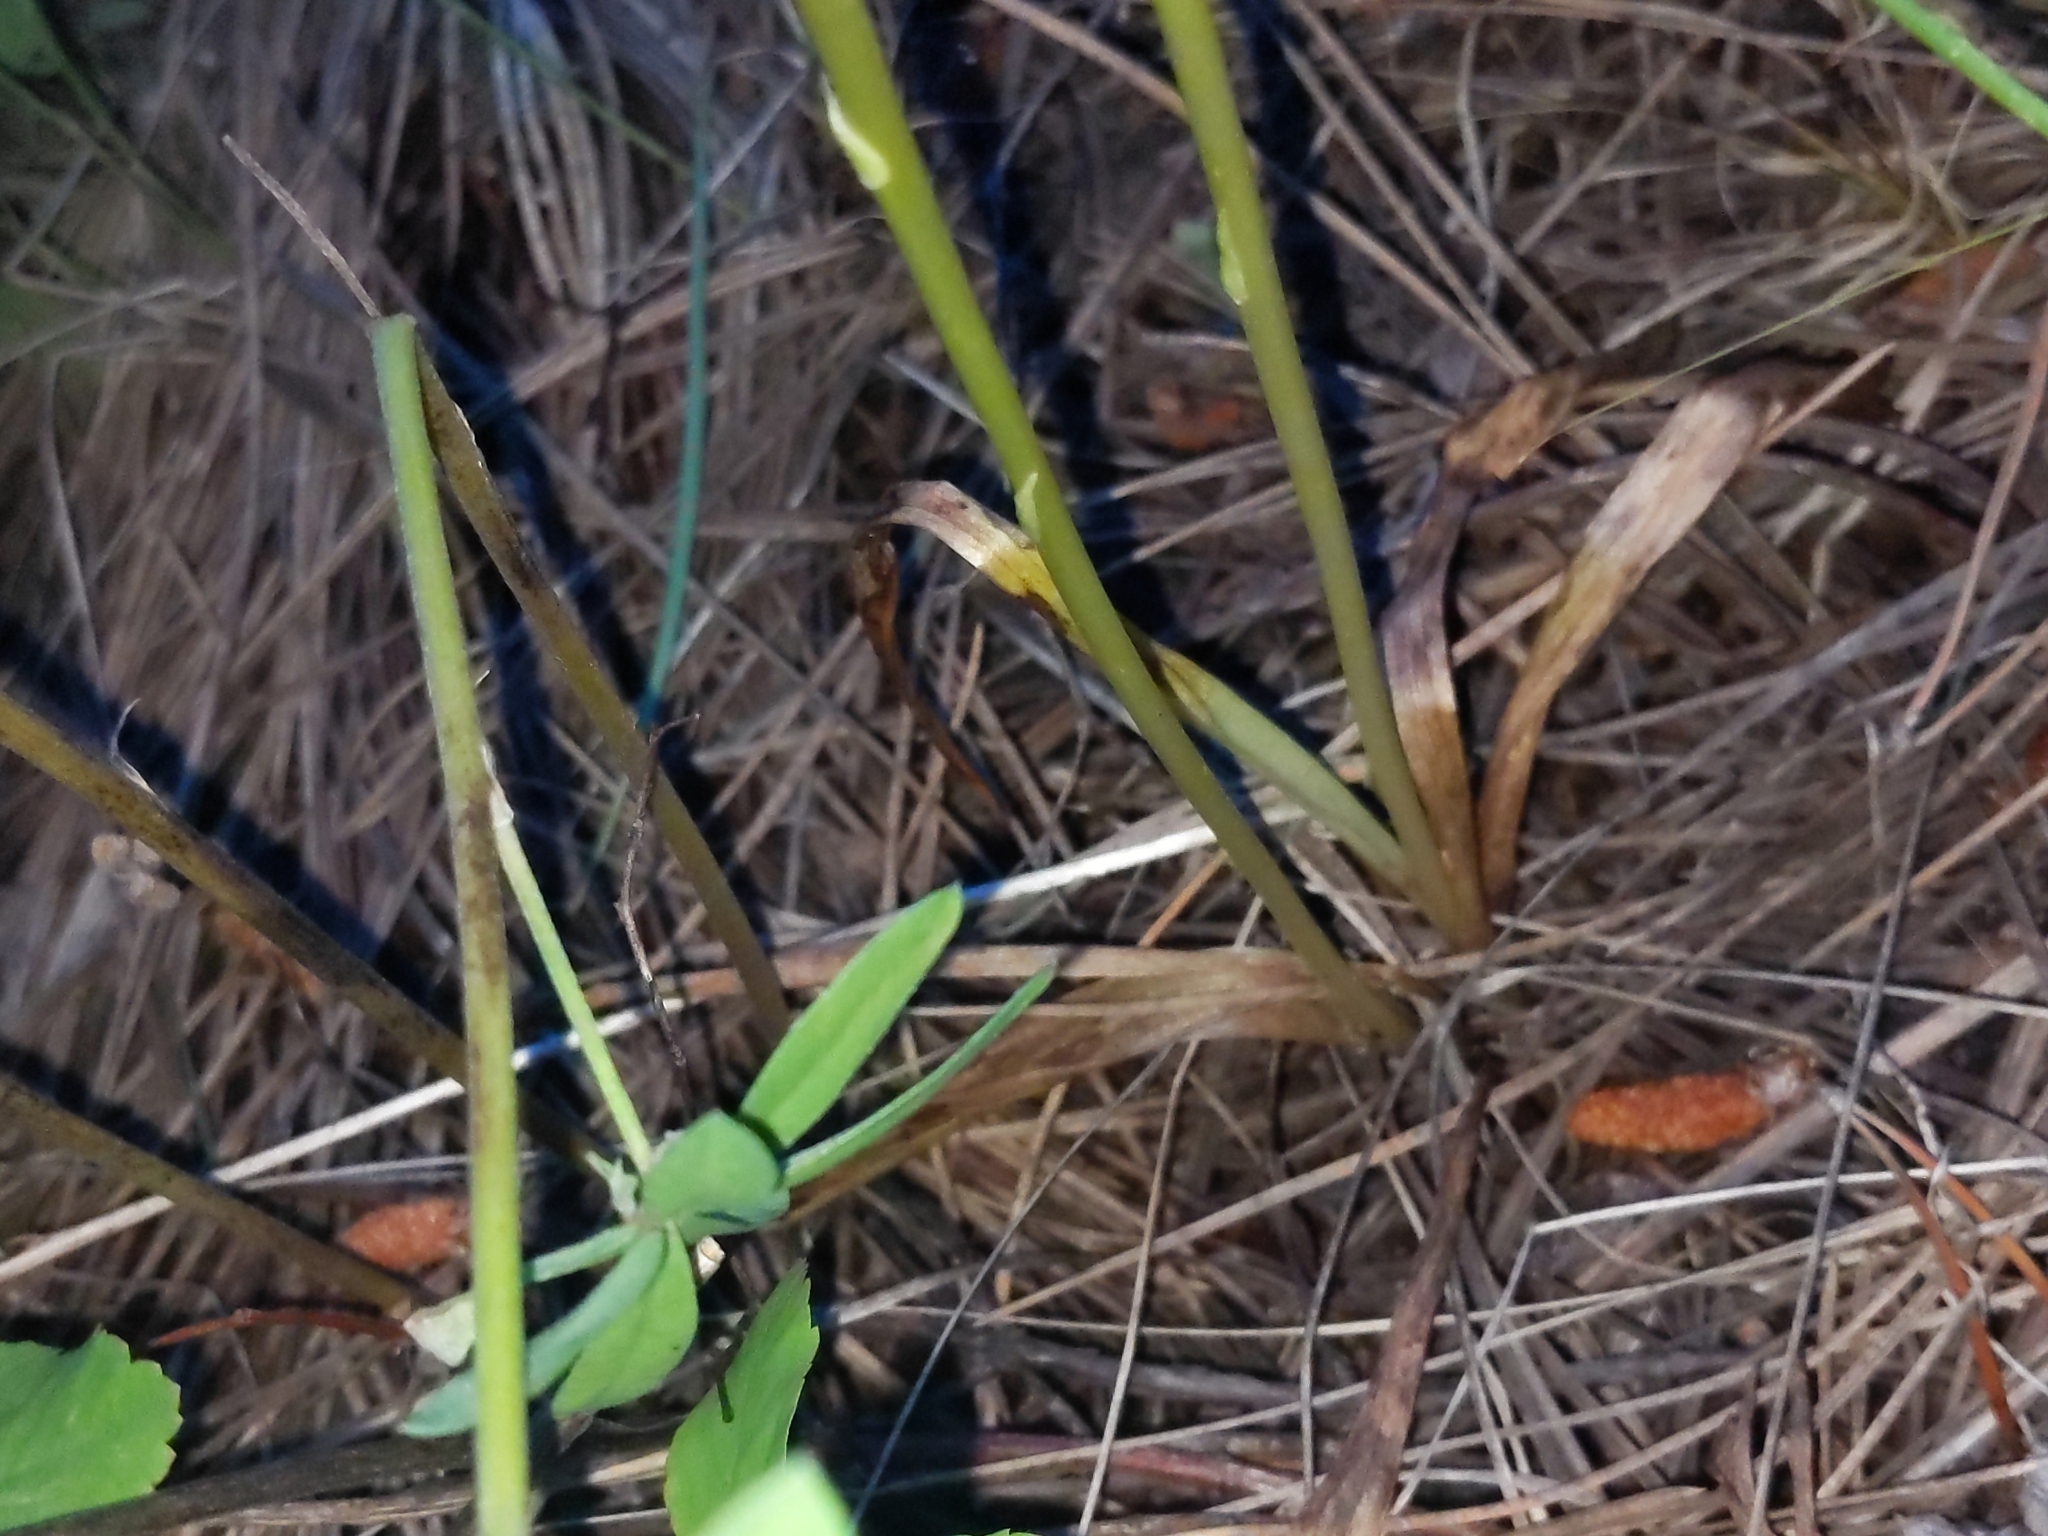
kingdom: Plantae
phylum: Tracheophyta
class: Liliopsida
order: Asparagales
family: Orchidaceae
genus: Platanthera
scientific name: Platanthera unalascensis
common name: Alaska bog orchid
